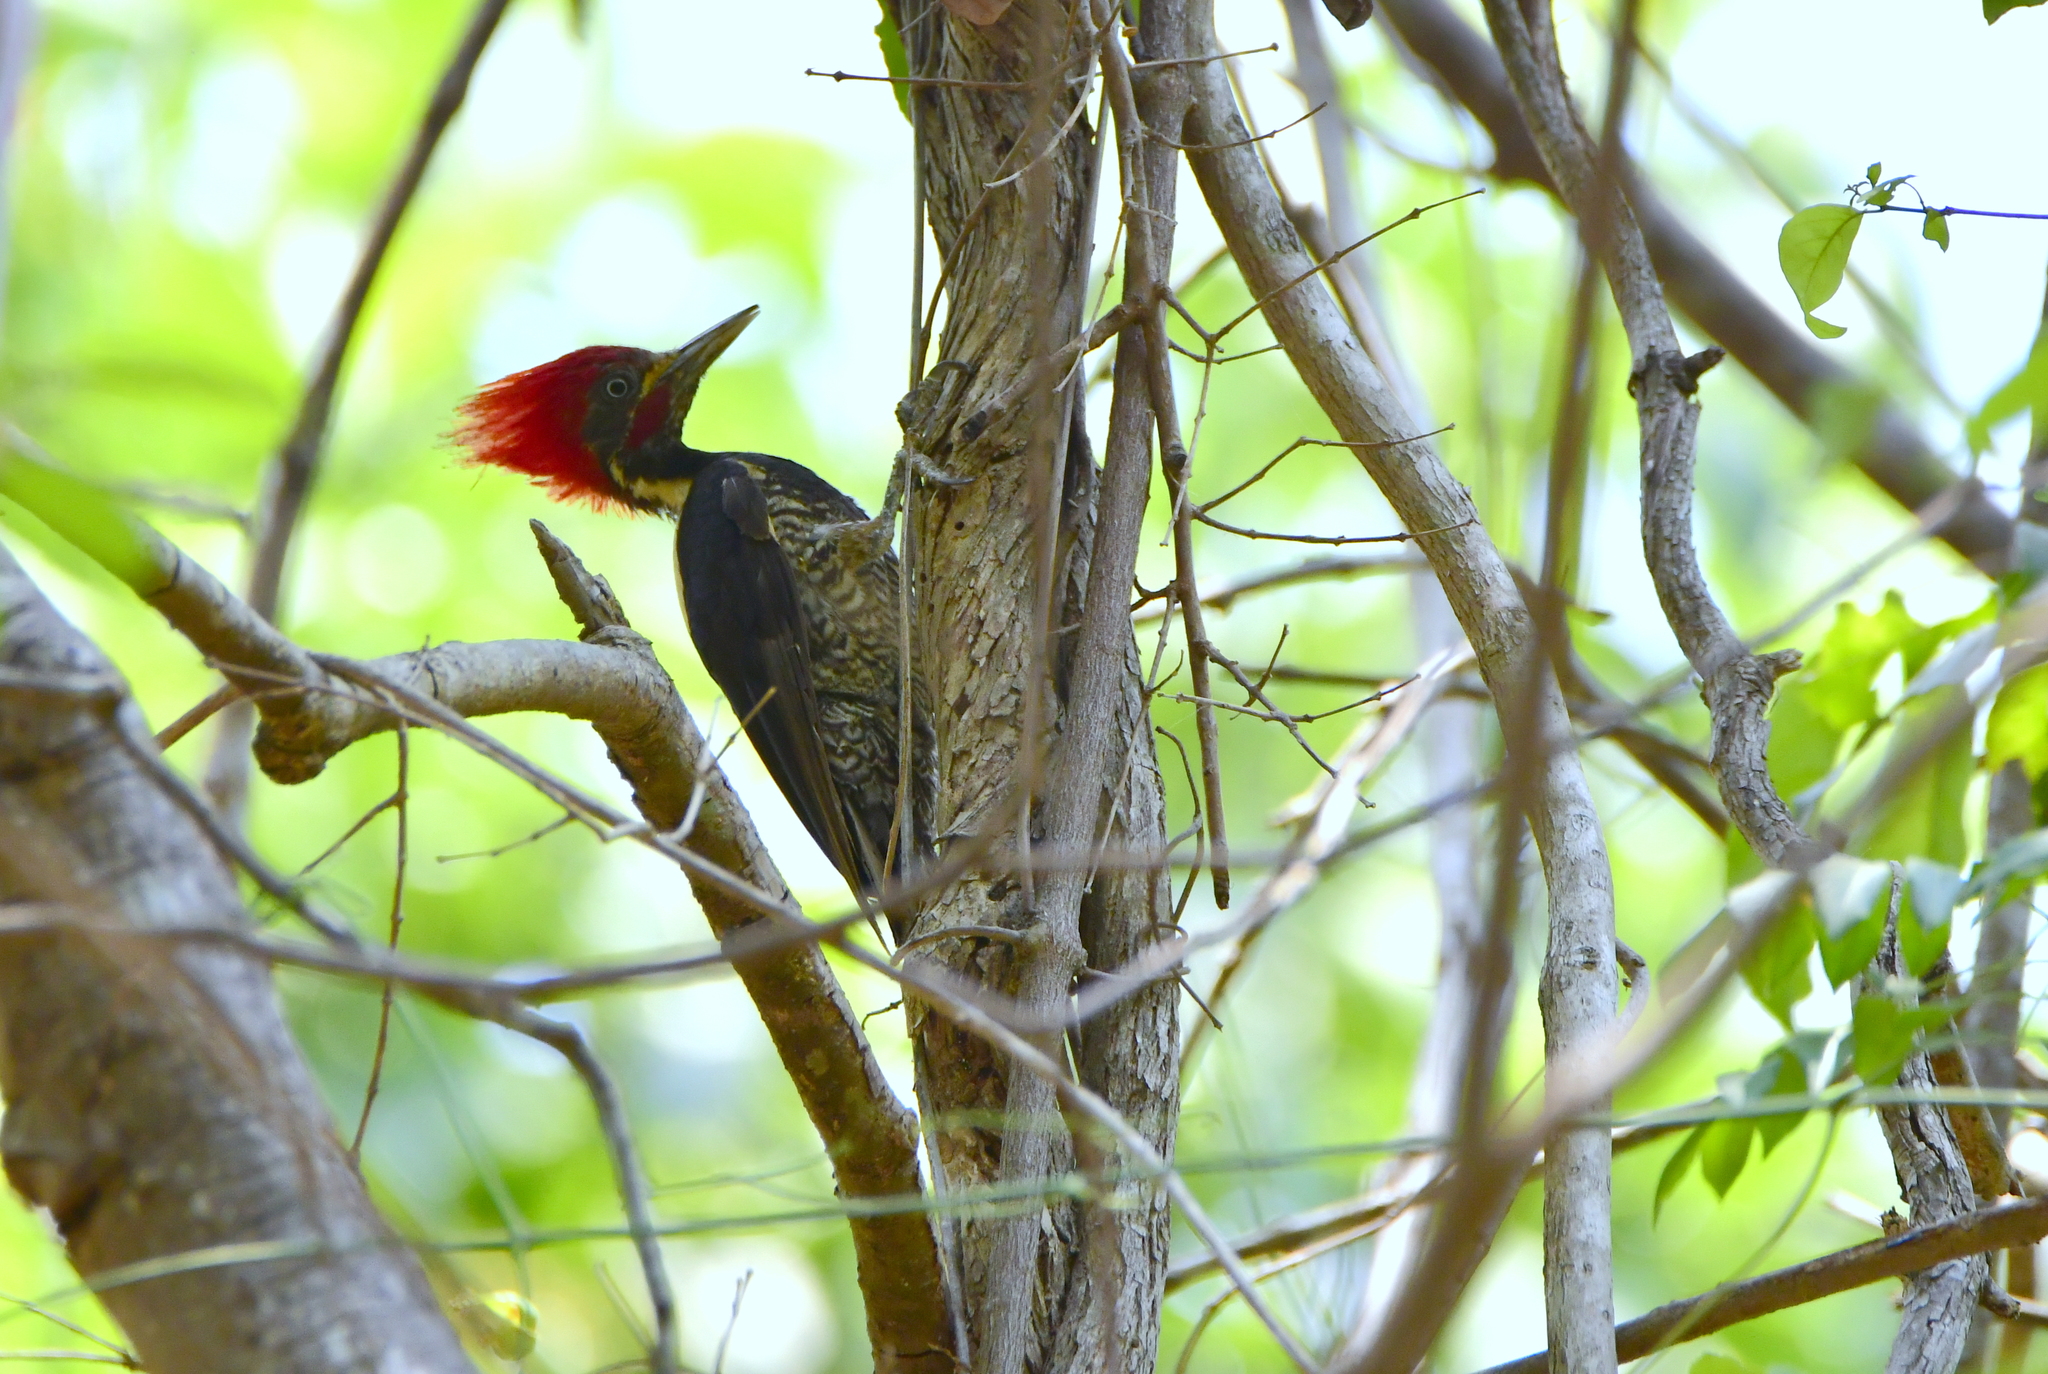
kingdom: Animalia
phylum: Chordata
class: Aves
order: Piciformes
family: Picidae
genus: Dryocopus
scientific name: Dryocopus lineatus
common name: Lineated woodpecker
